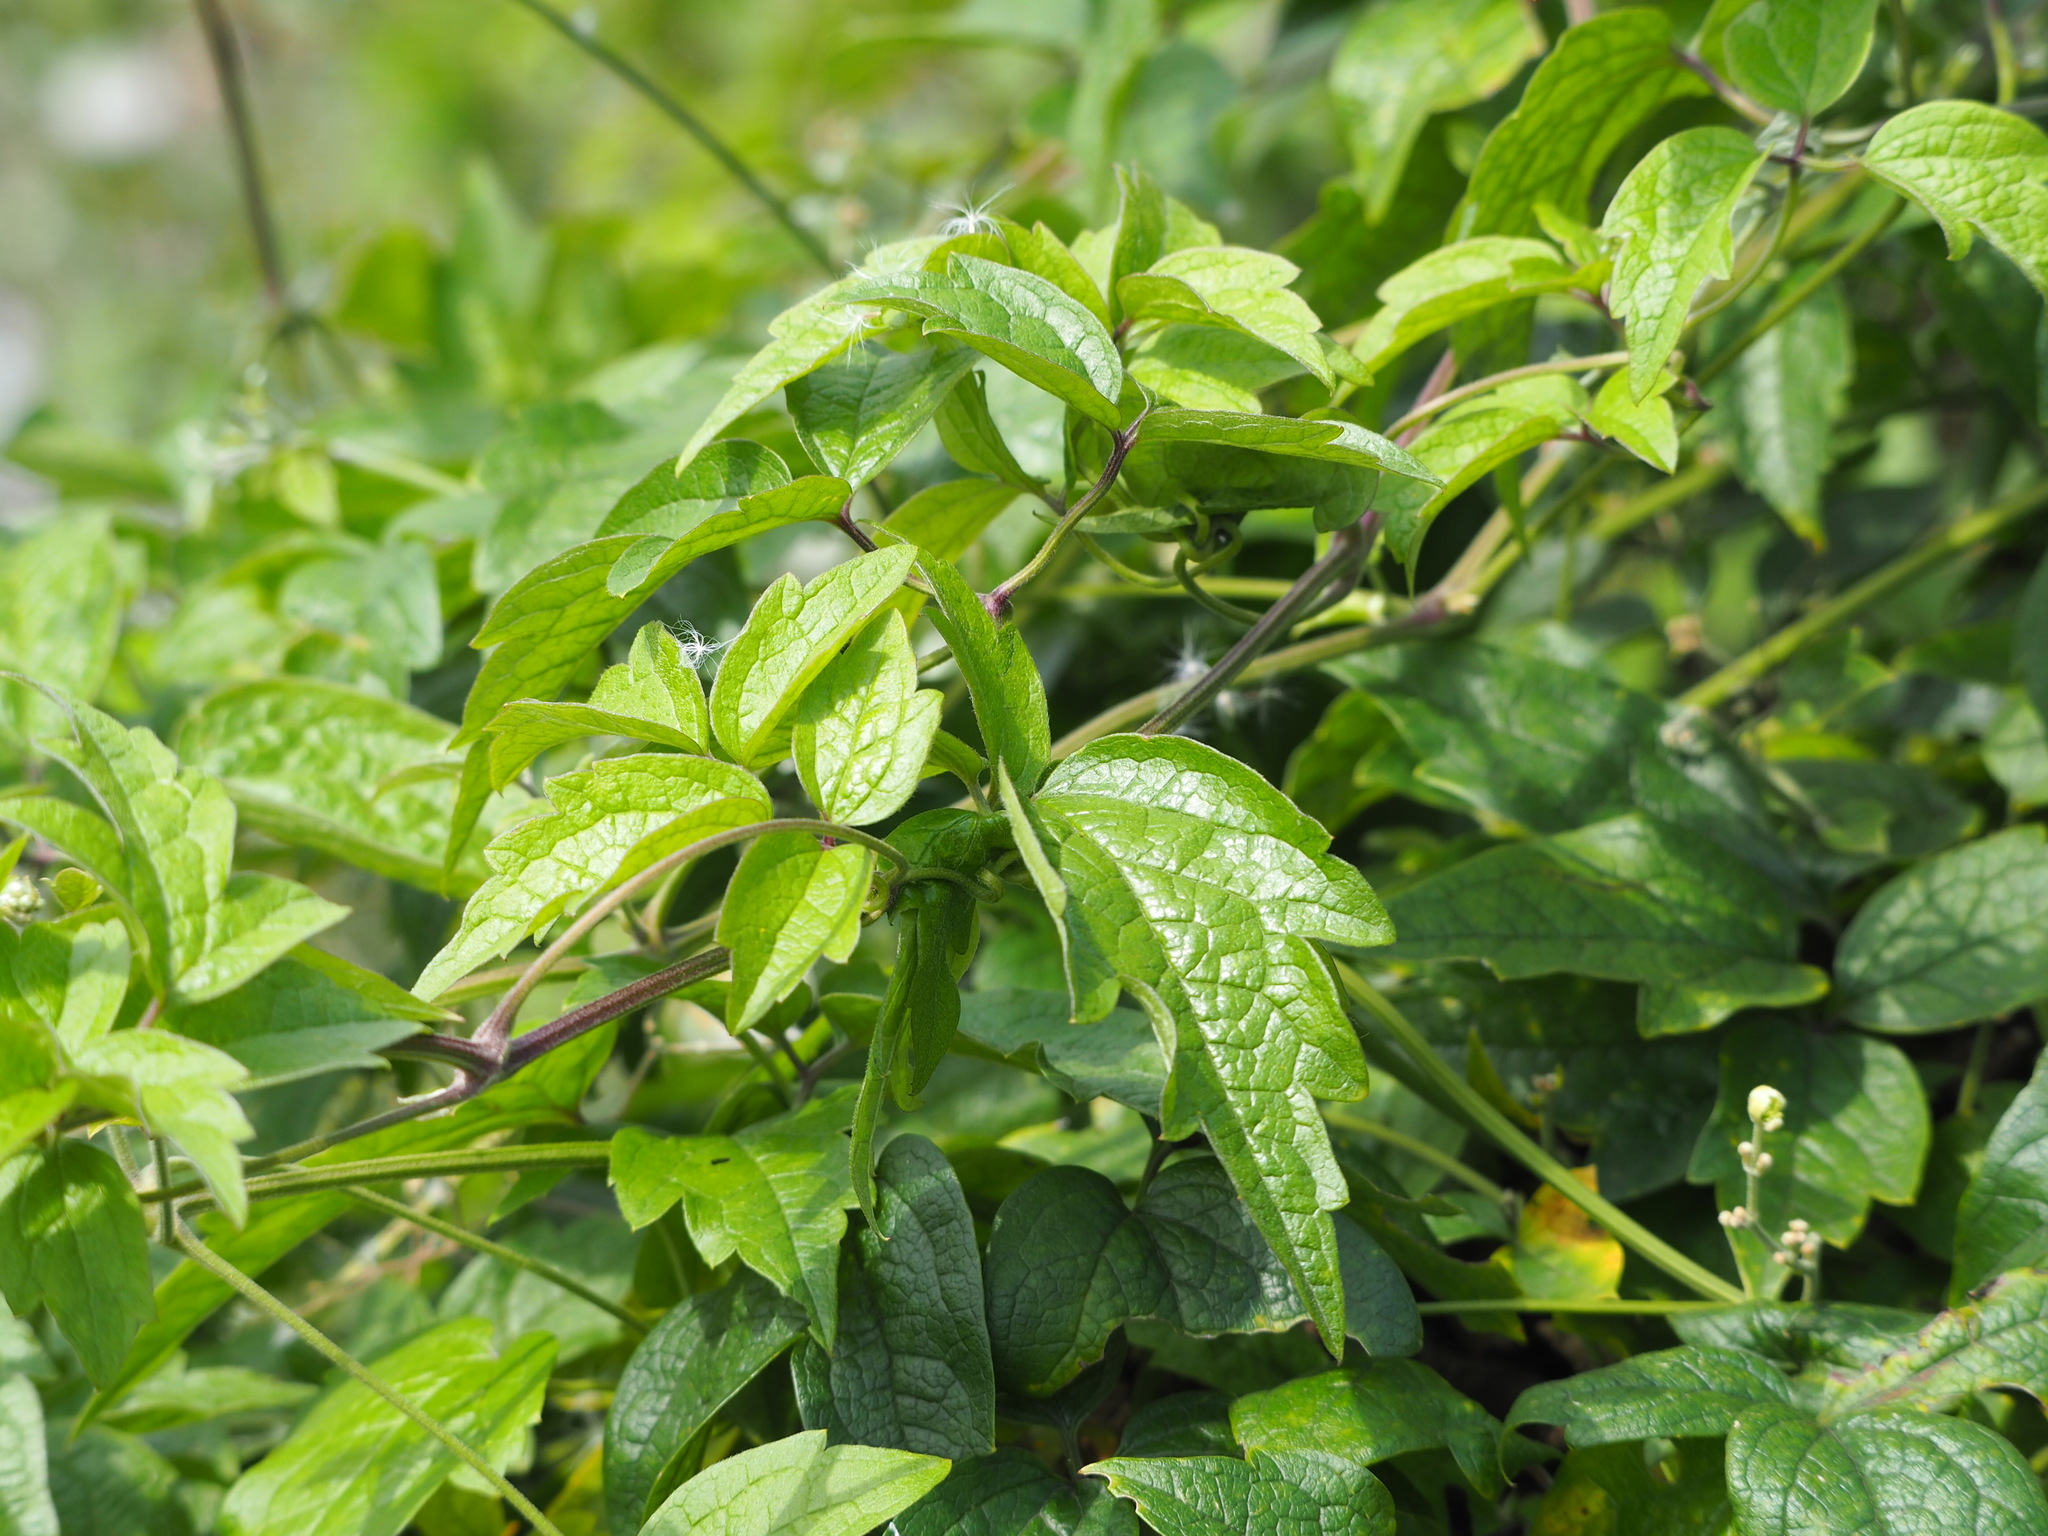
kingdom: Plantae
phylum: Tracheophyta
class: Magnoliopsida
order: Ranunculales
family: Ranunculaceae
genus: Clematis
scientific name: Clematis grata
